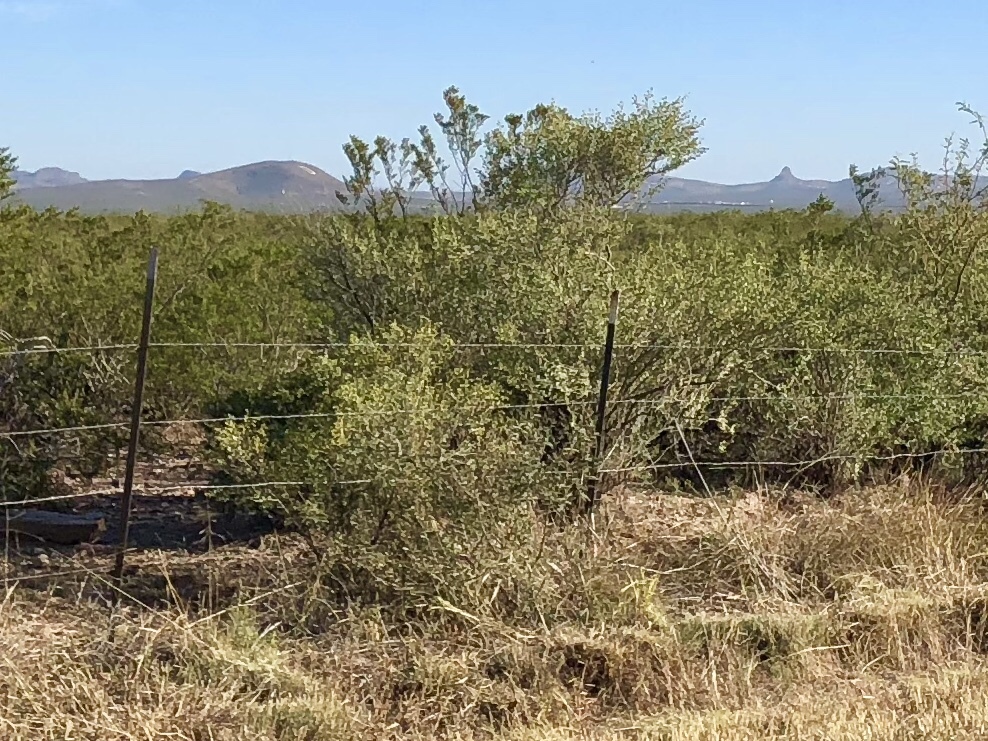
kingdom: Plantae
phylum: Tracheophyta
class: Magnoliopsida
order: Zygophyllales
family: Zygophyllaceae
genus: Larrea
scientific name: Larrea tridentata
